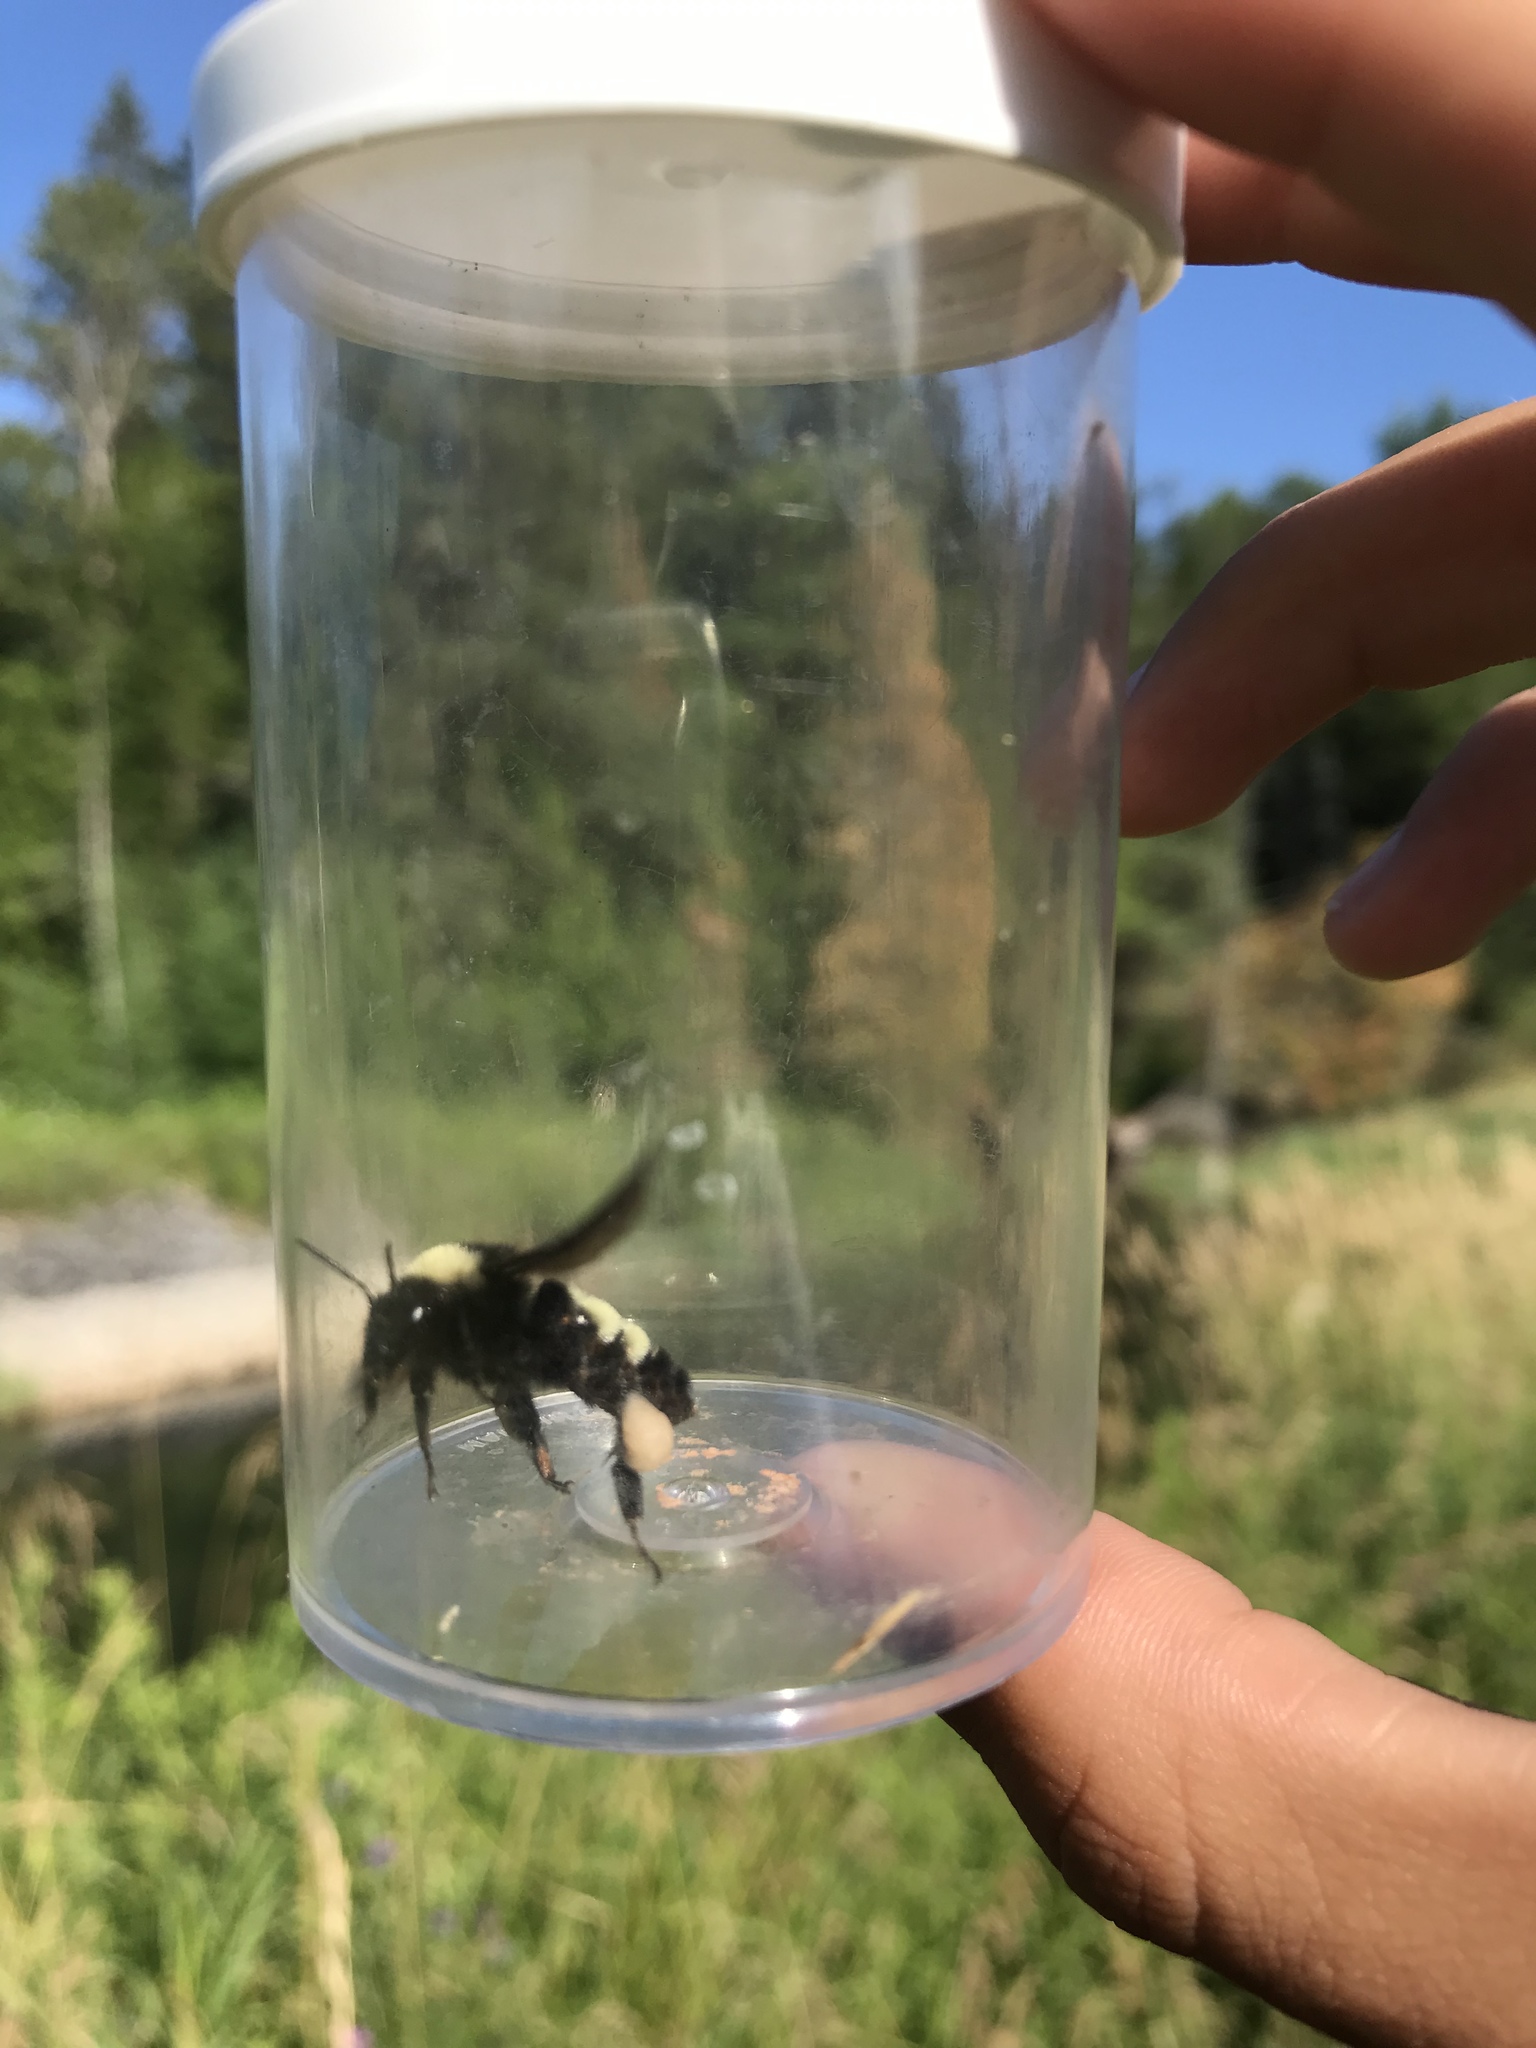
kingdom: Animalia
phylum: Arthropoda
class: Insecta
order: Hymenoptera
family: Apidae
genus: Bombus
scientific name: Bombus pensylvanicus
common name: Bumble bee
